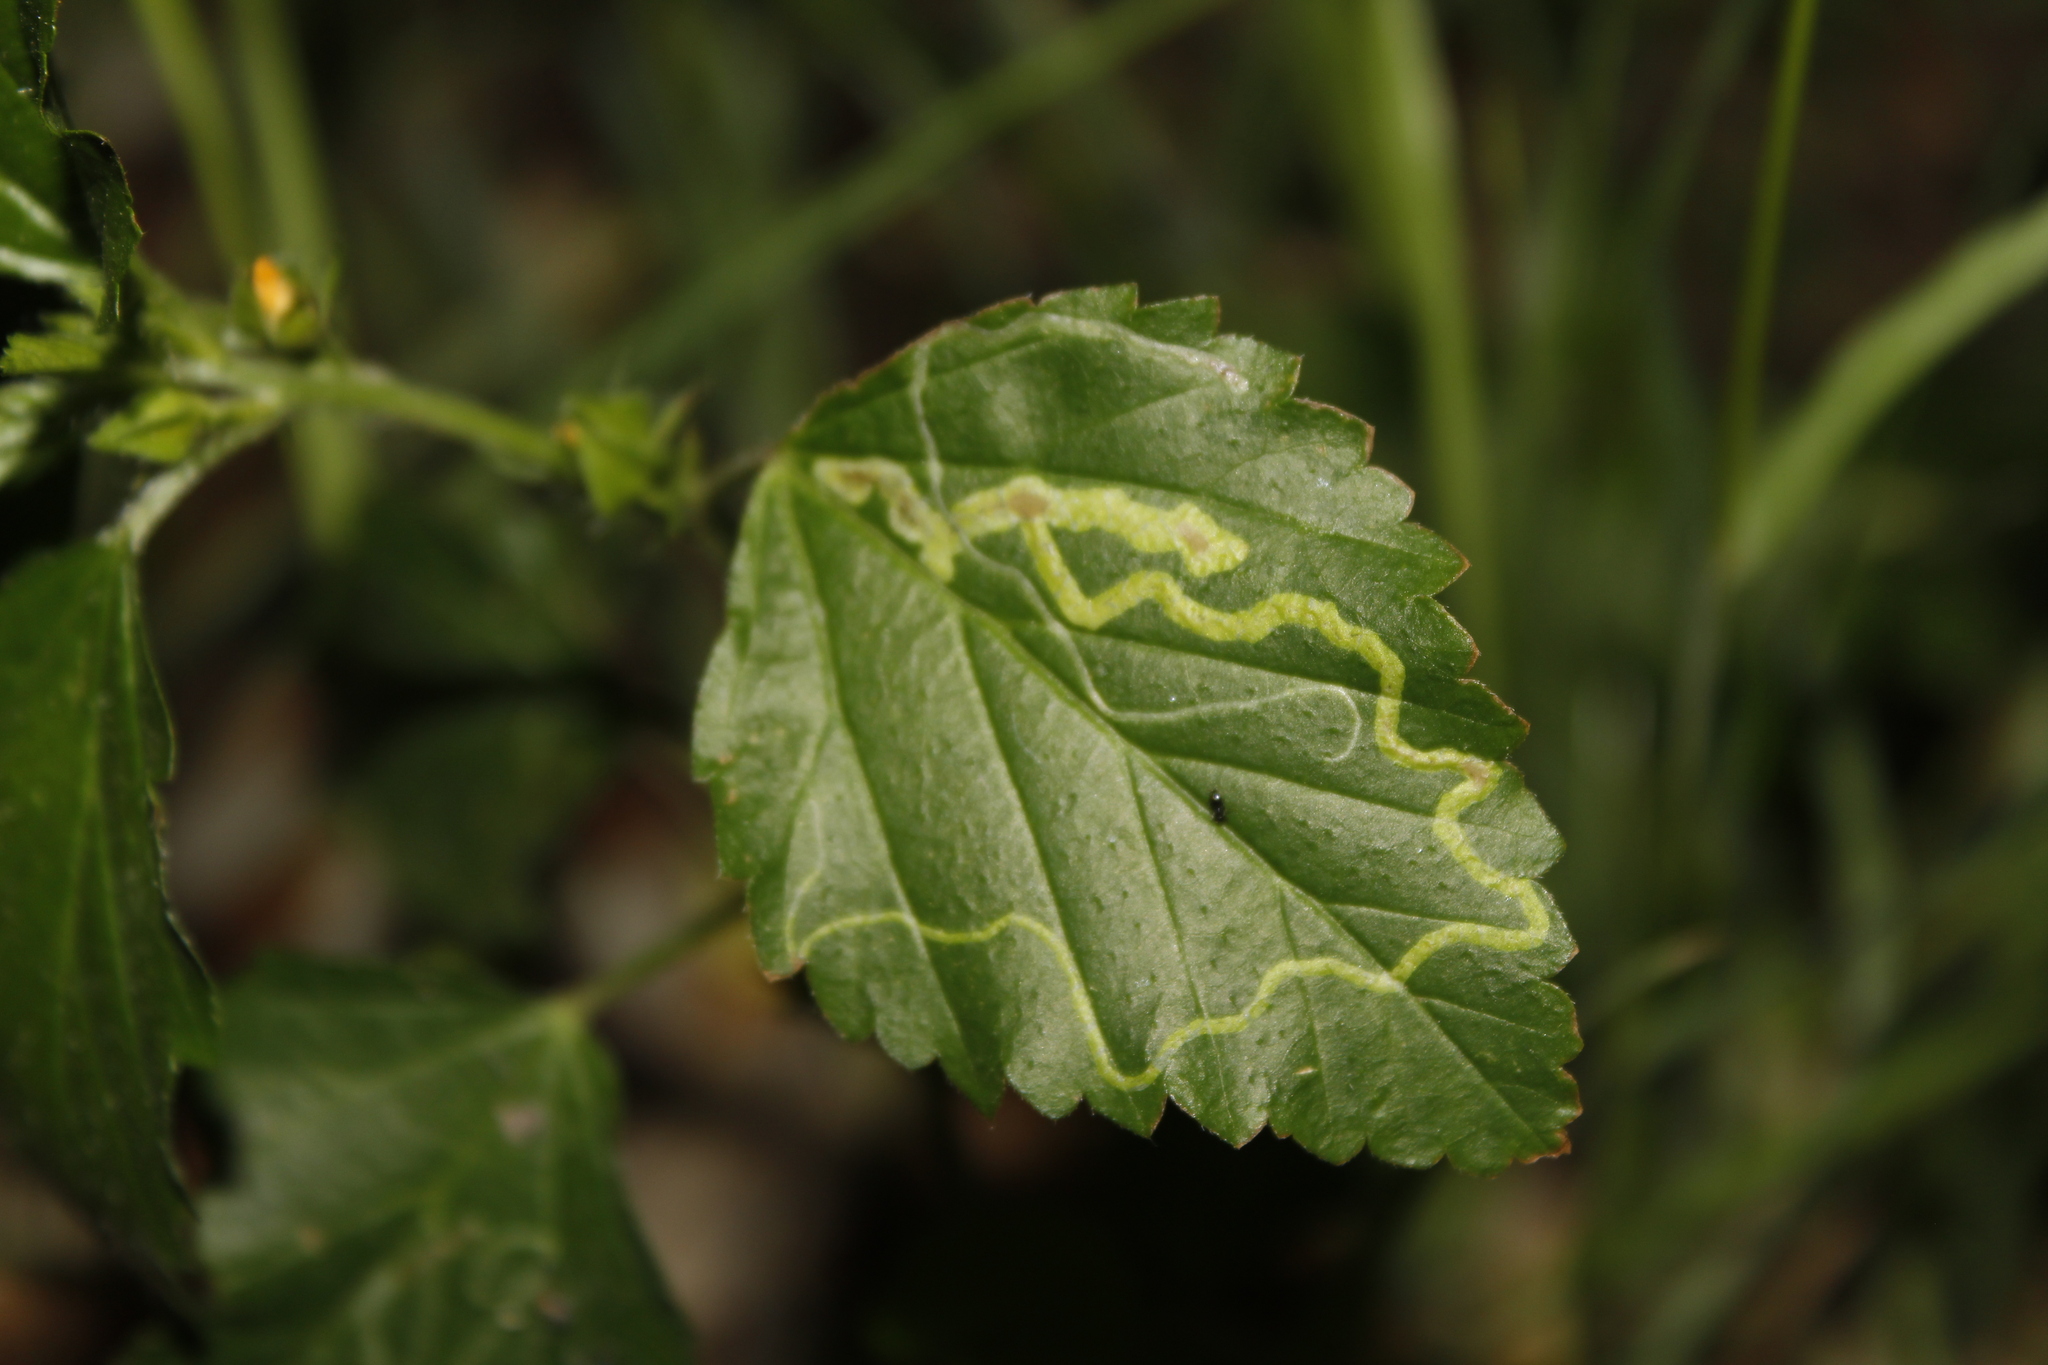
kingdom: Animalia
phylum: Arthropoda
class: Insecta
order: Diptera
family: Agromyzidae
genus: Calycomyza
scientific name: Calycomyza malvae
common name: Mallow leaf miner
